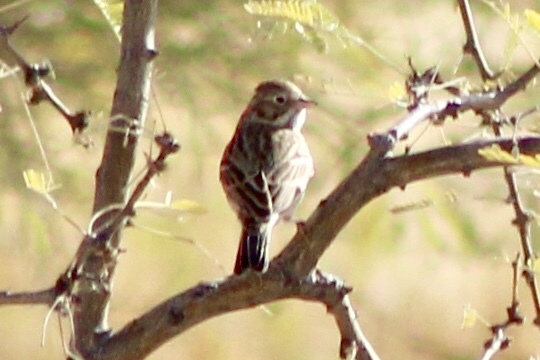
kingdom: Animalia
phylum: Chordata
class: Aves
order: Passeriformes
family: Passerellidae
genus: Pooecetes
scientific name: Pooecetes gramineus
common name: Vesper sparrow
